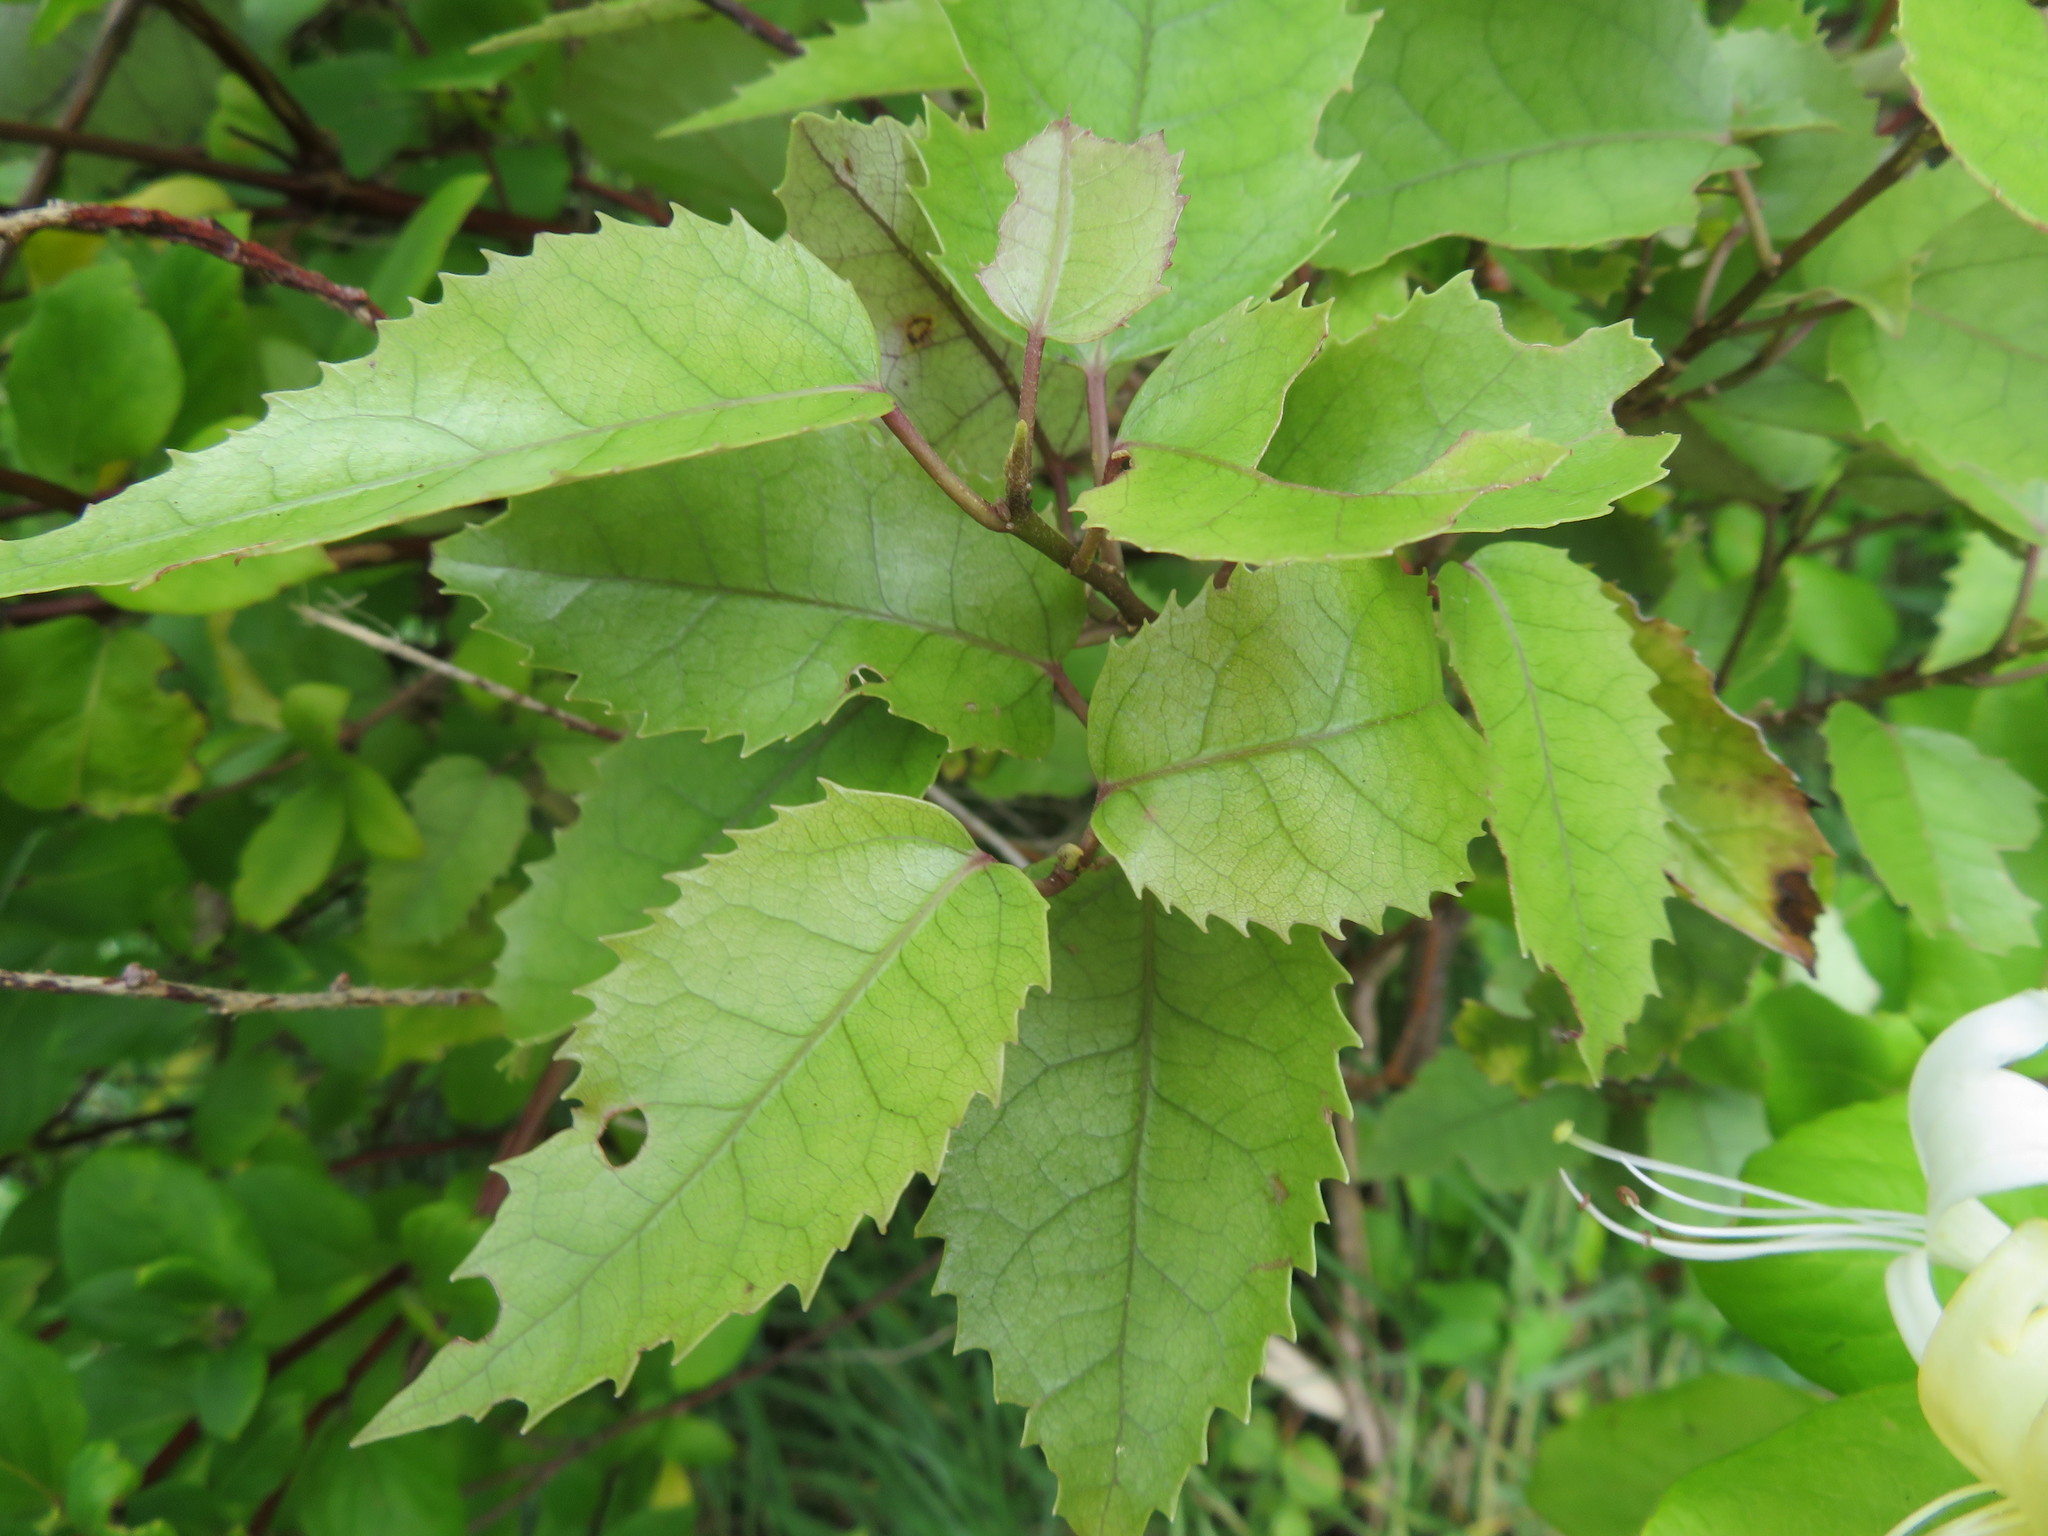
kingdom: Plantae
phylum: Tracheophyta
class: Magnoliopsida
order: Malvales
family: Malvaceae
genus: Hoheria
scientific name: Hoheria populnea
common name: Lacebark
